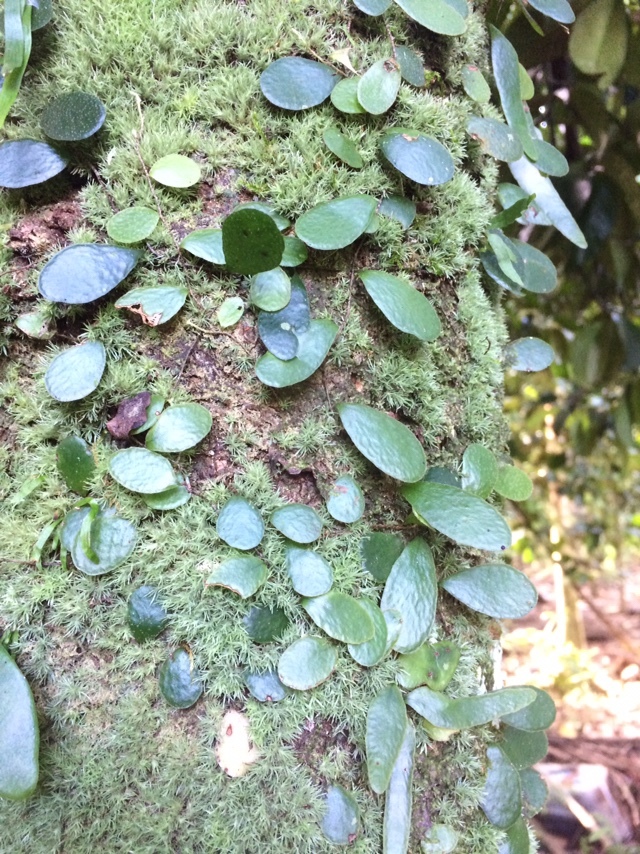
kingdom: Plantae
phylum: Tracheophyta
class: Polypodiopsida
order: Polypodiales
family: Polypodiaceae
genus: Pyrrosia
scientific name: Pyrrosia piloselloides
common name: Epiphytic creeping fern
